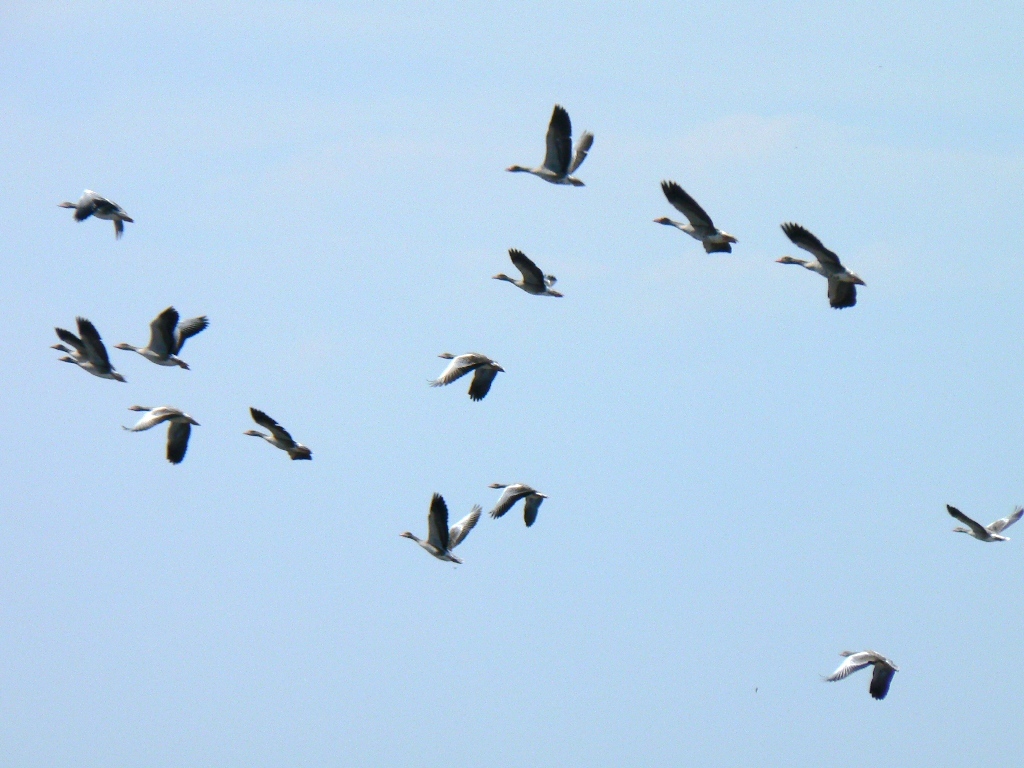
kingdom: Animalia
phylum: Chordata
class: Aves
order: Anseriformes
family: Anatidae
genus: Anser
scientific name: Anser anser
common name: Greylag goose
